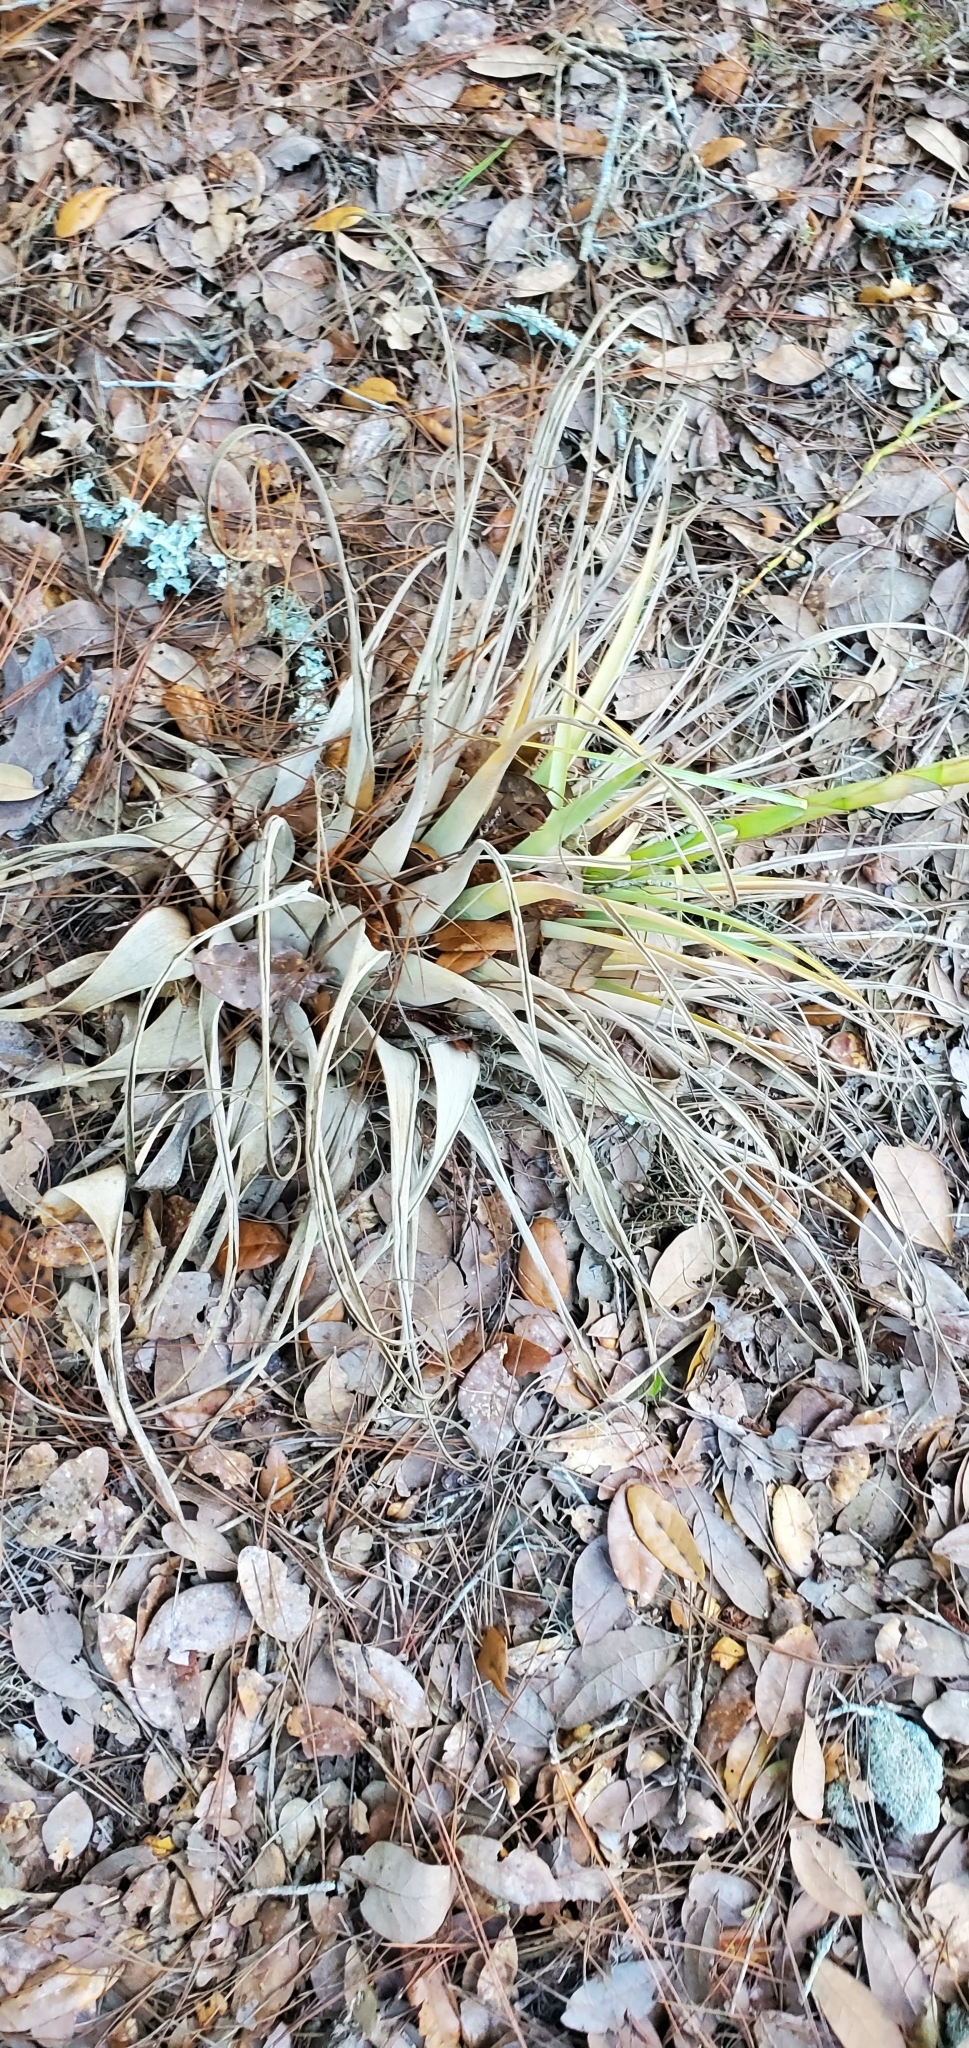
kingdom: Plantae
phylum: Tracheophyta
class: Liliopsida
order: Poales
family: Bromeliaceae
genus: Tillandsia
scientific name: Tillandsia utriculata
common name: Wild pine
